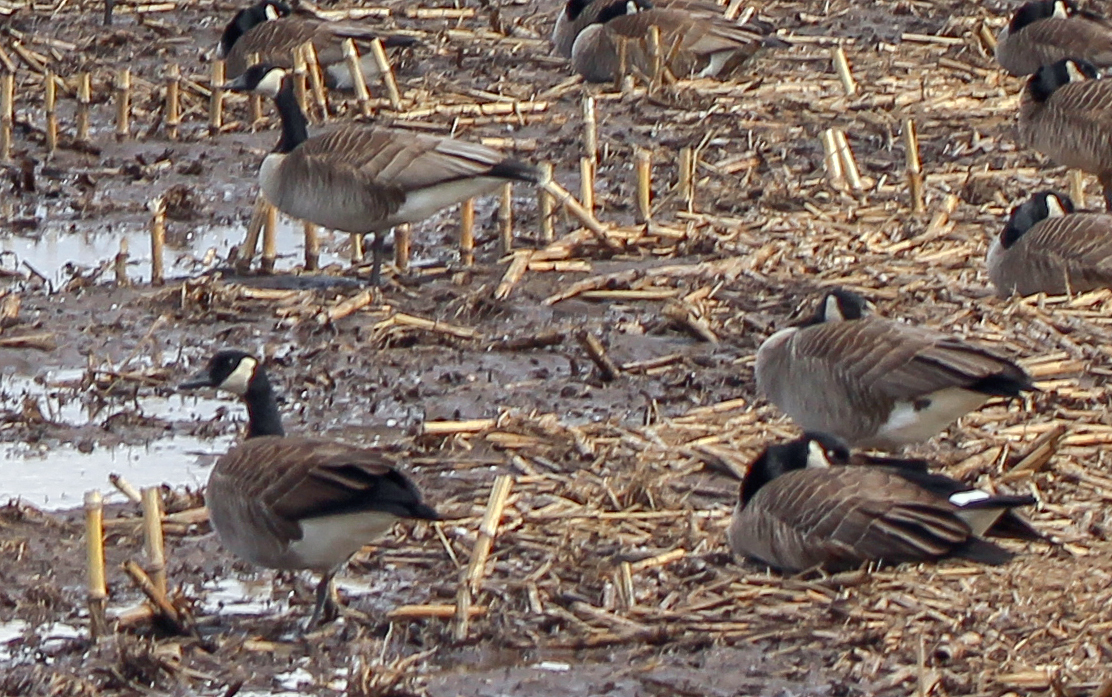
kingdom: Animalia
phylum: Chordata
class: Aves
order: Anseriformes
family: Anatidae
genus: Branta
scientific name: Branta canadensis
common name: Canada goose
